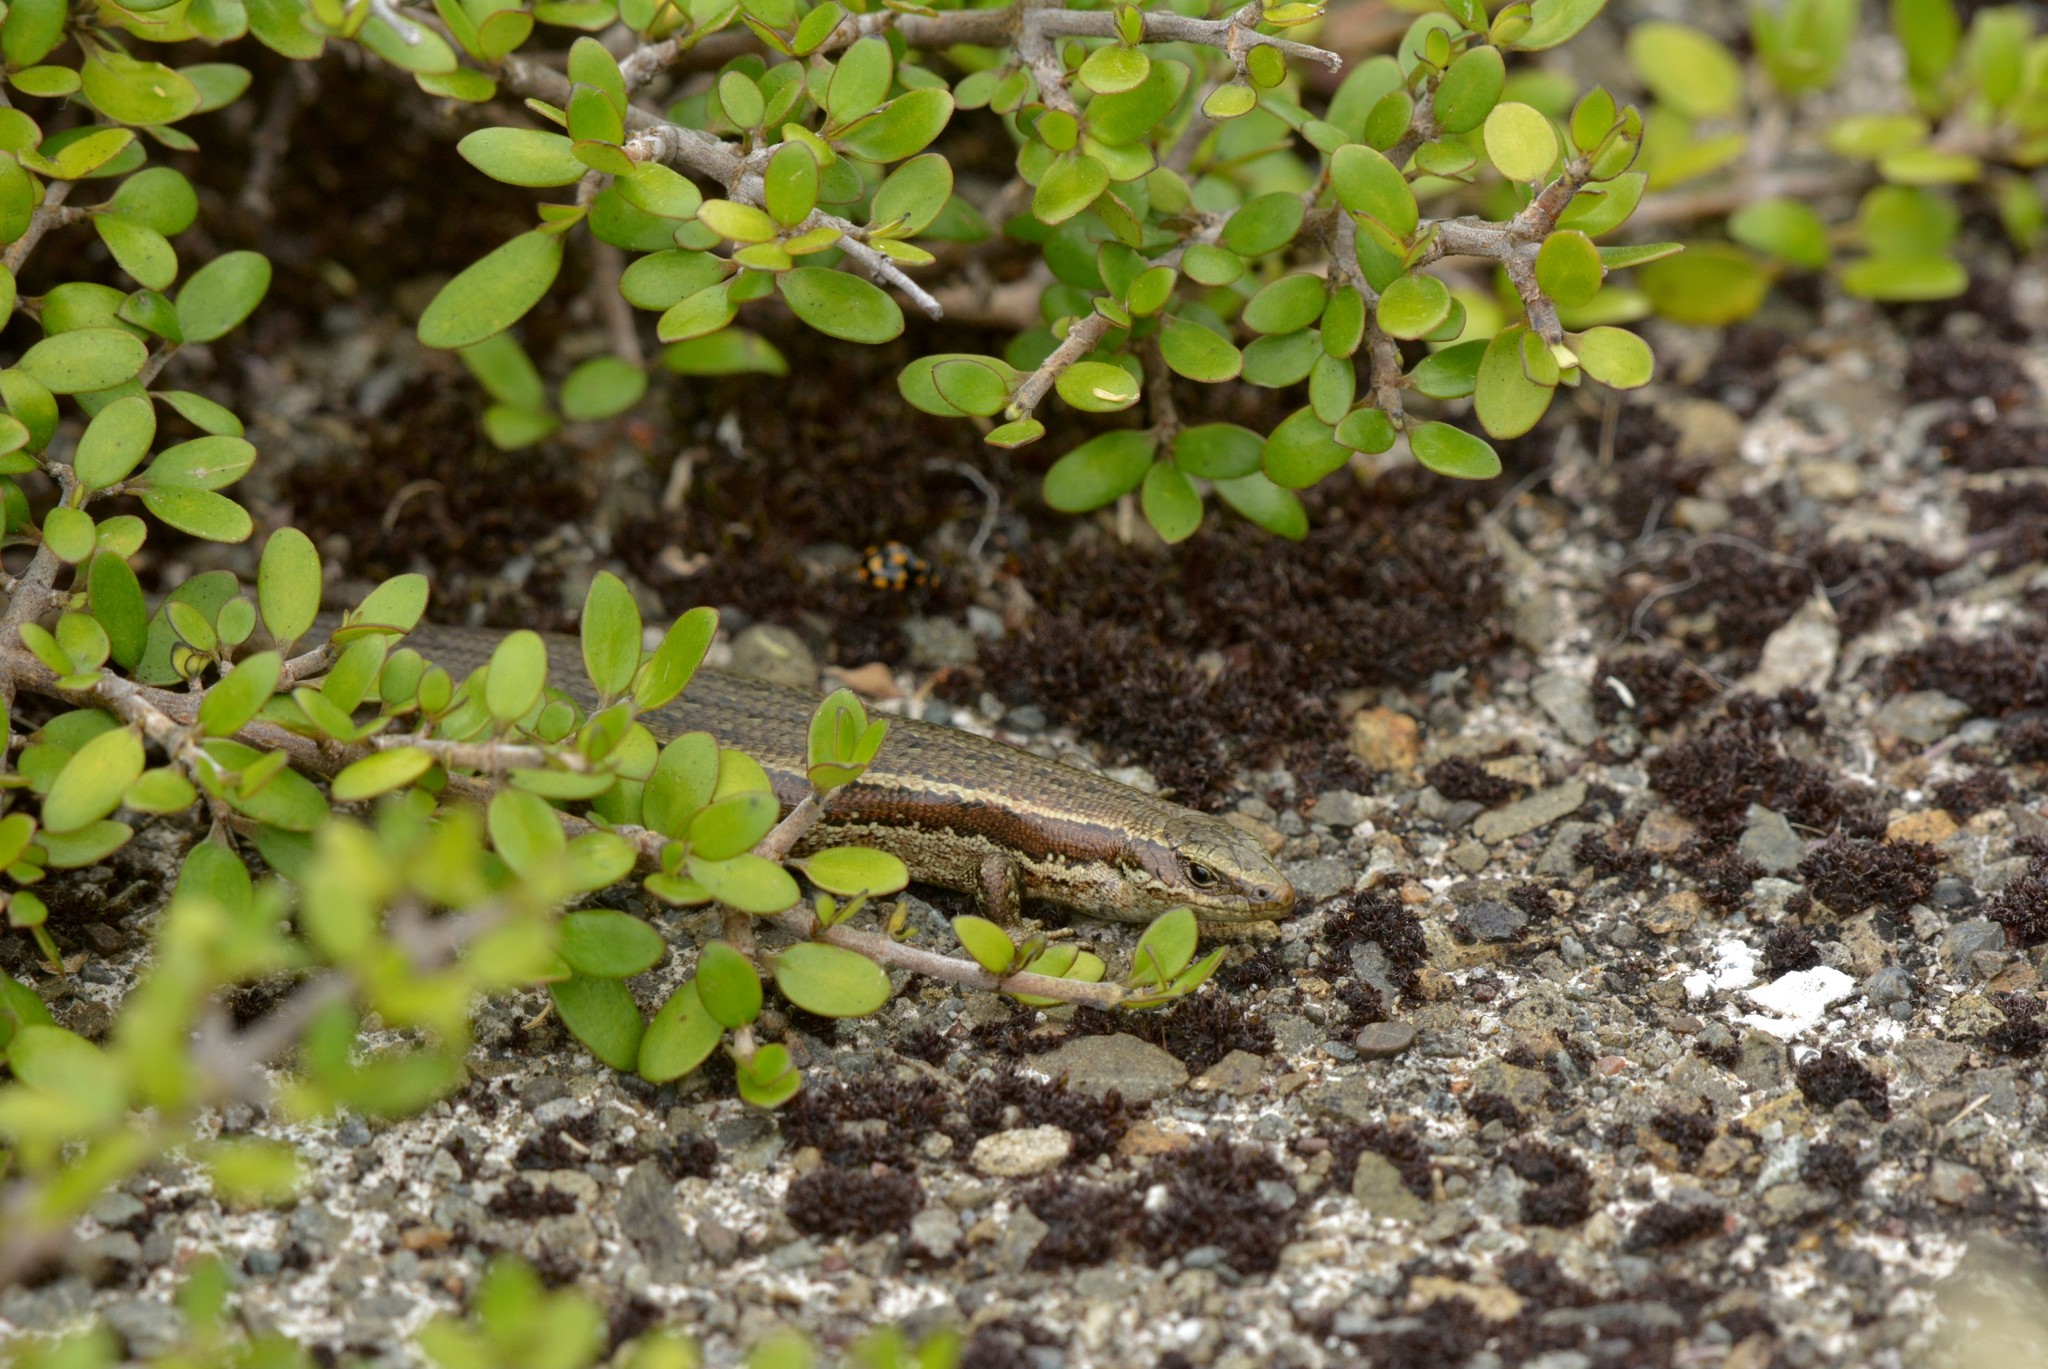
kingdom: Animalia
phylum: Chordata
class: Squamata
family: Scincidae
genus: Oligosoma
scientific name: Oligosoma polychroma
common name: Common new zealand skink
